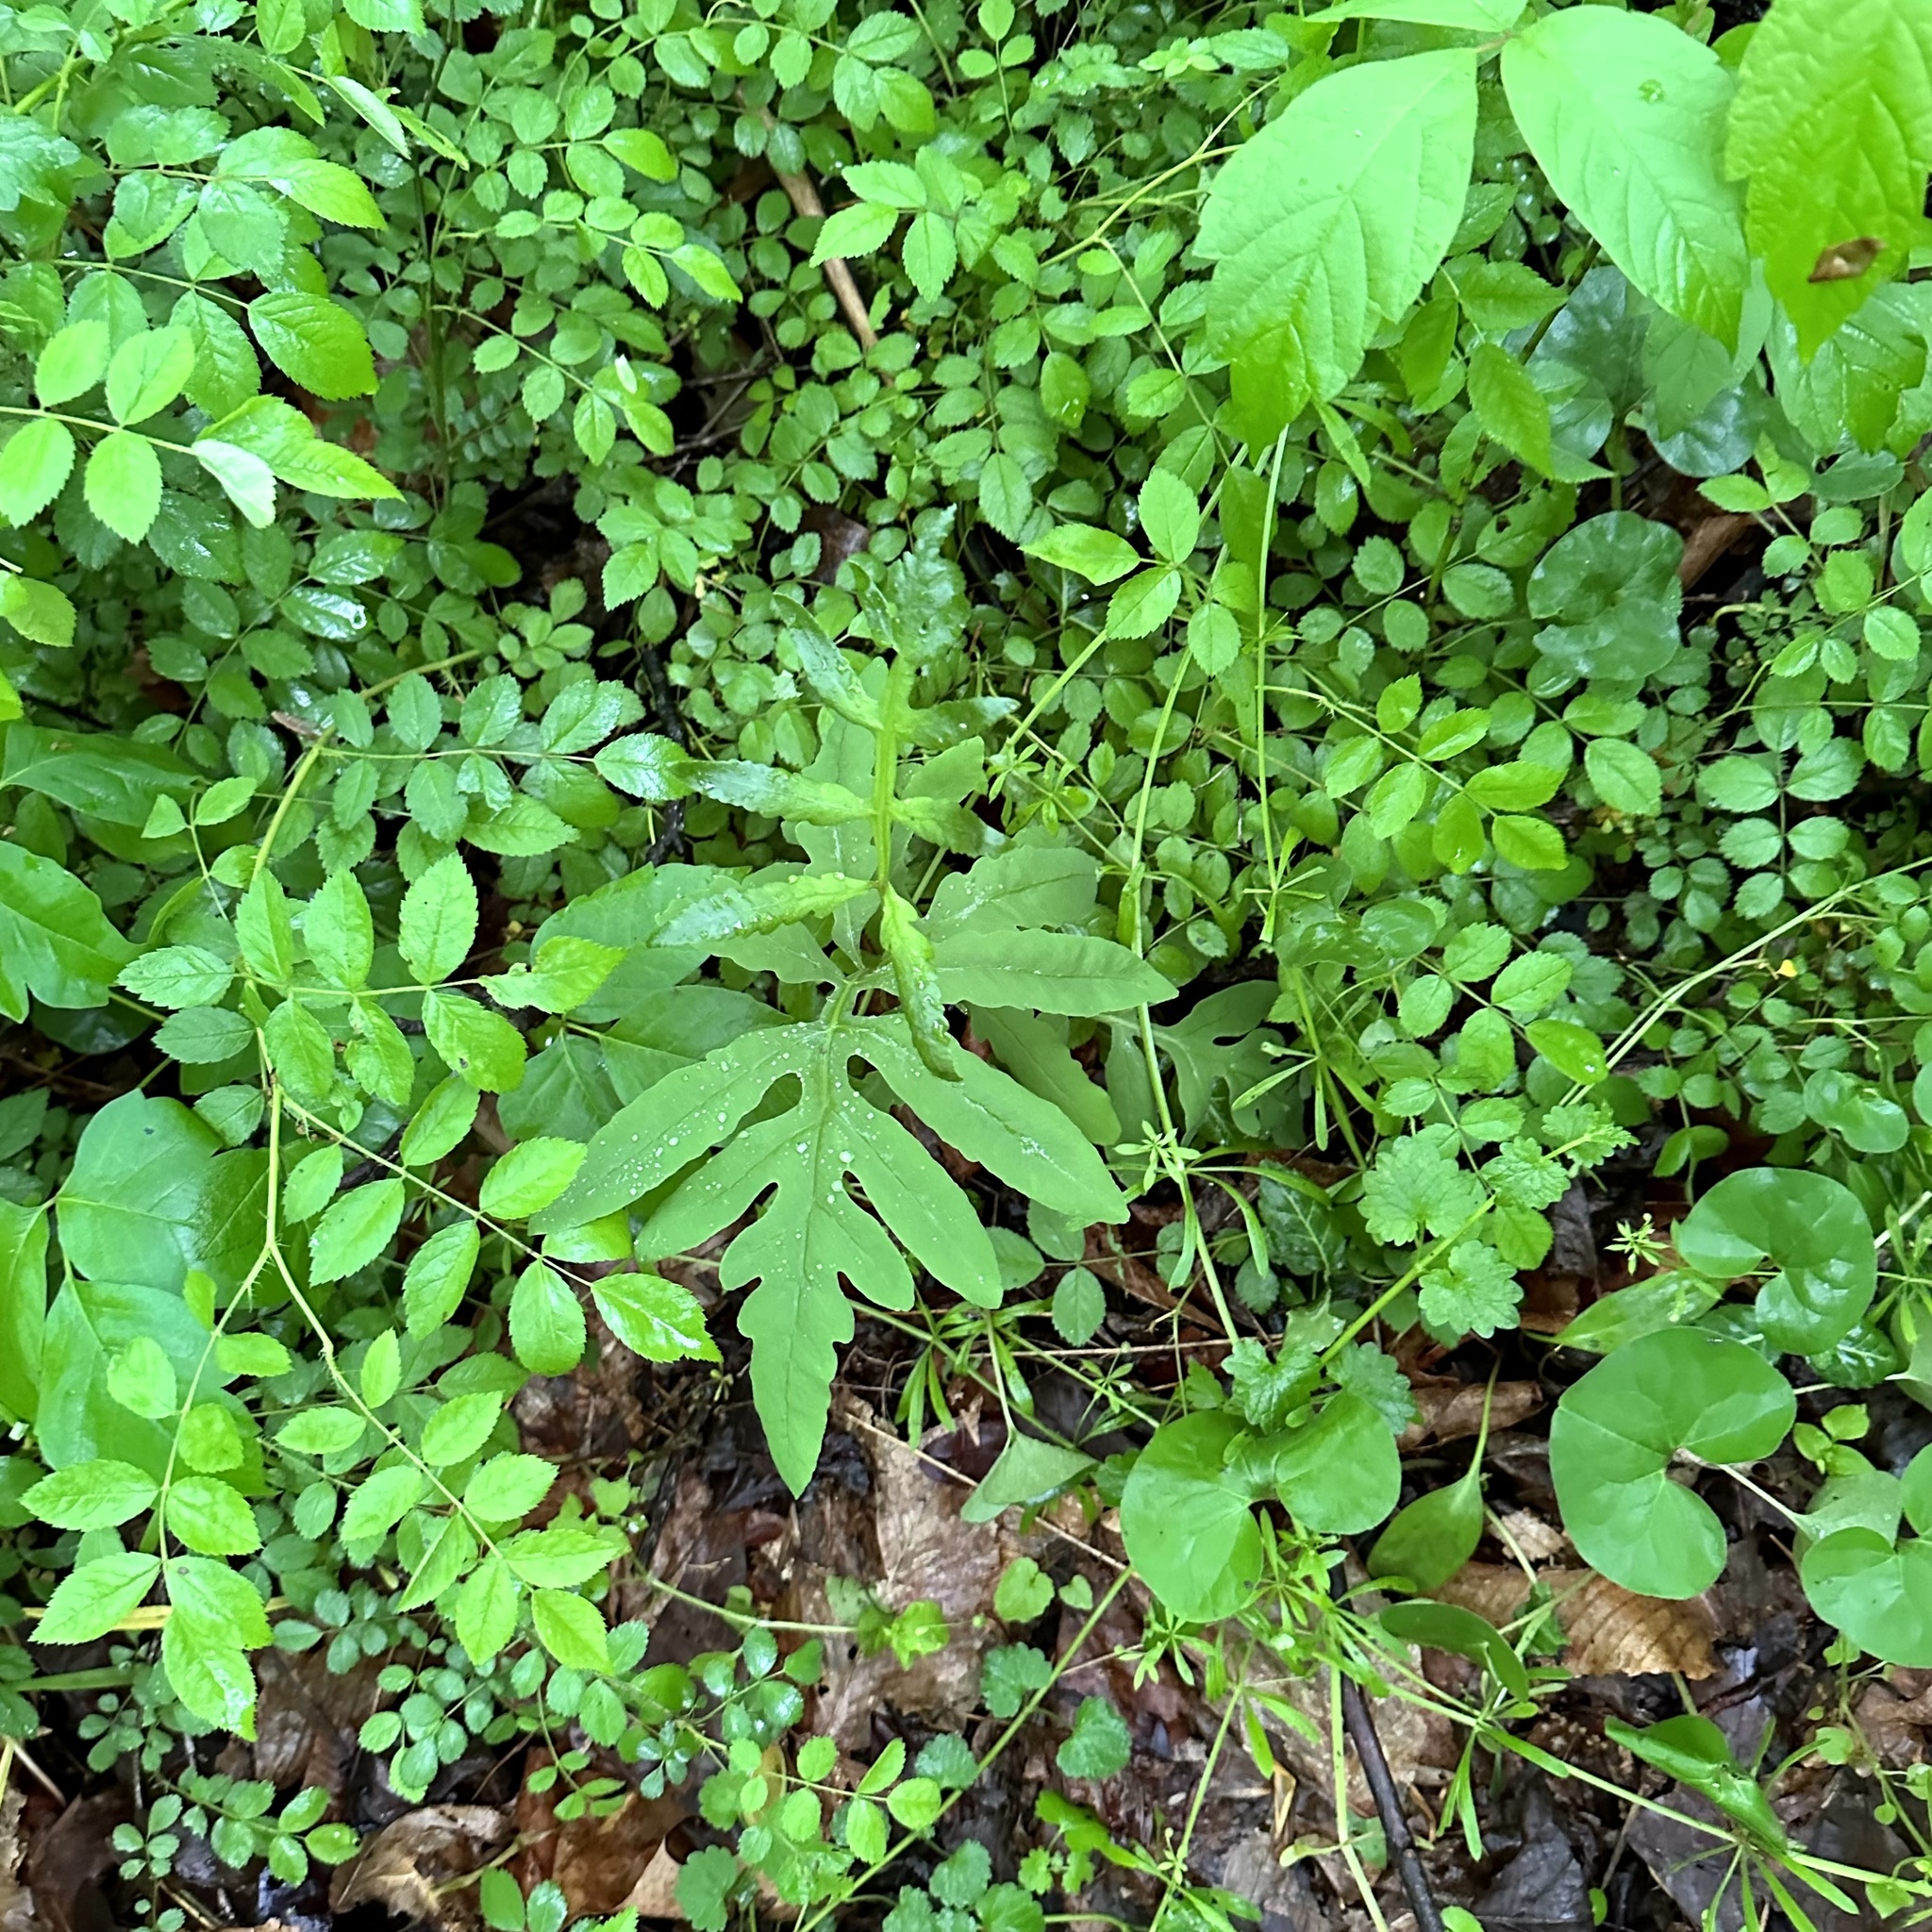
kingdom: Plantae
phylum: Tracheophyta
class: Polypodiopsida
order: Polypodiales
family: Onocleaceae
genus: Onoclea
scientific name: Onoclea sensibilis
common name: Sensitive fern
